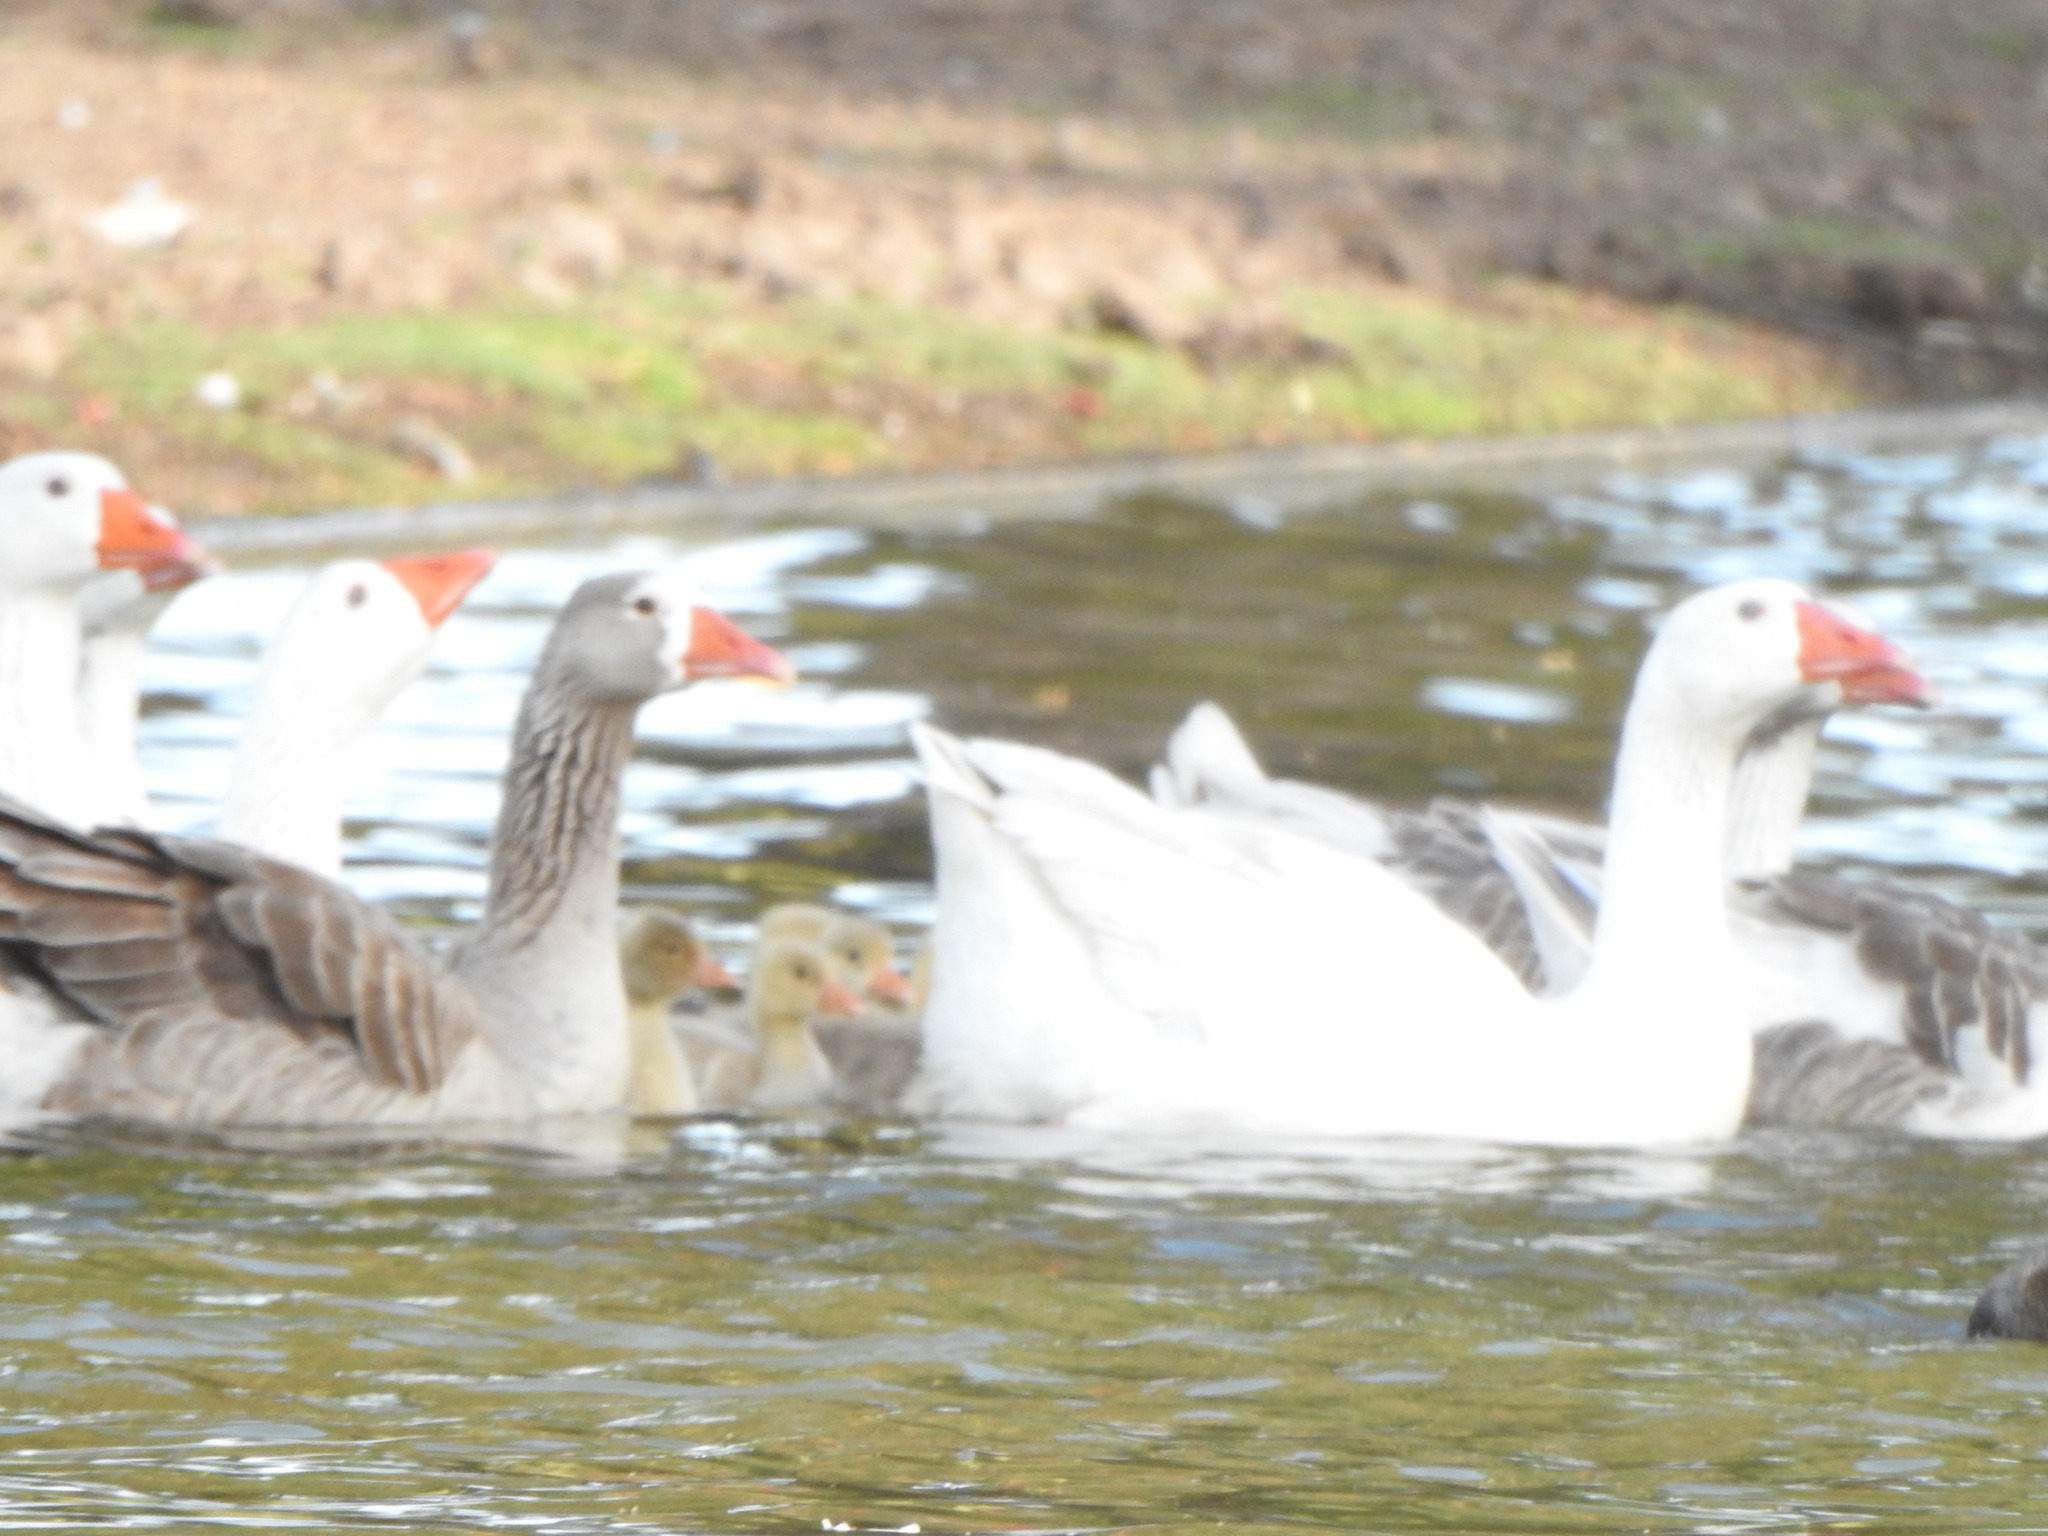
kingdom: Animalia
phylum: Chordata
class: Aves
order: Anseriformes
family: Anatidae
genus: Anser
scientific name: Anser anser
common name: Greylag goose
